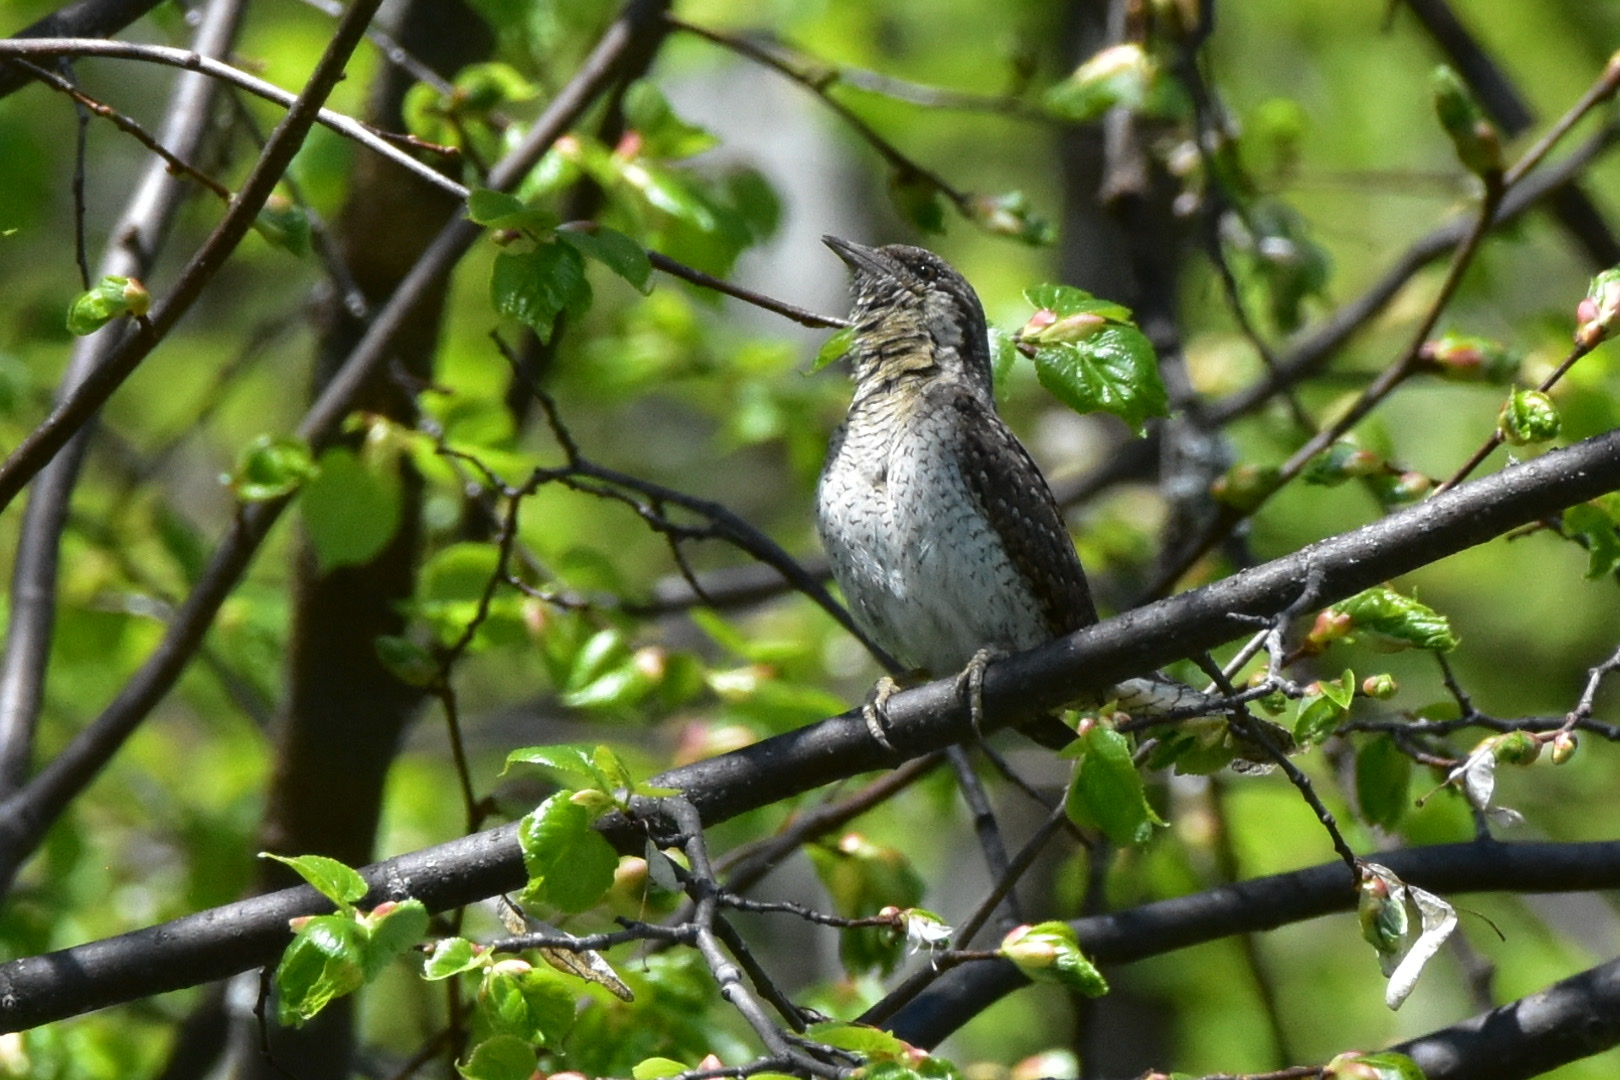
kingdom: Animalia
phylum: Chordata
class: Aves
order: Piciformes
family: Picidae
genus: Jynx
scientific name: Jynx torquilla
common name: Eurasian wryneck
